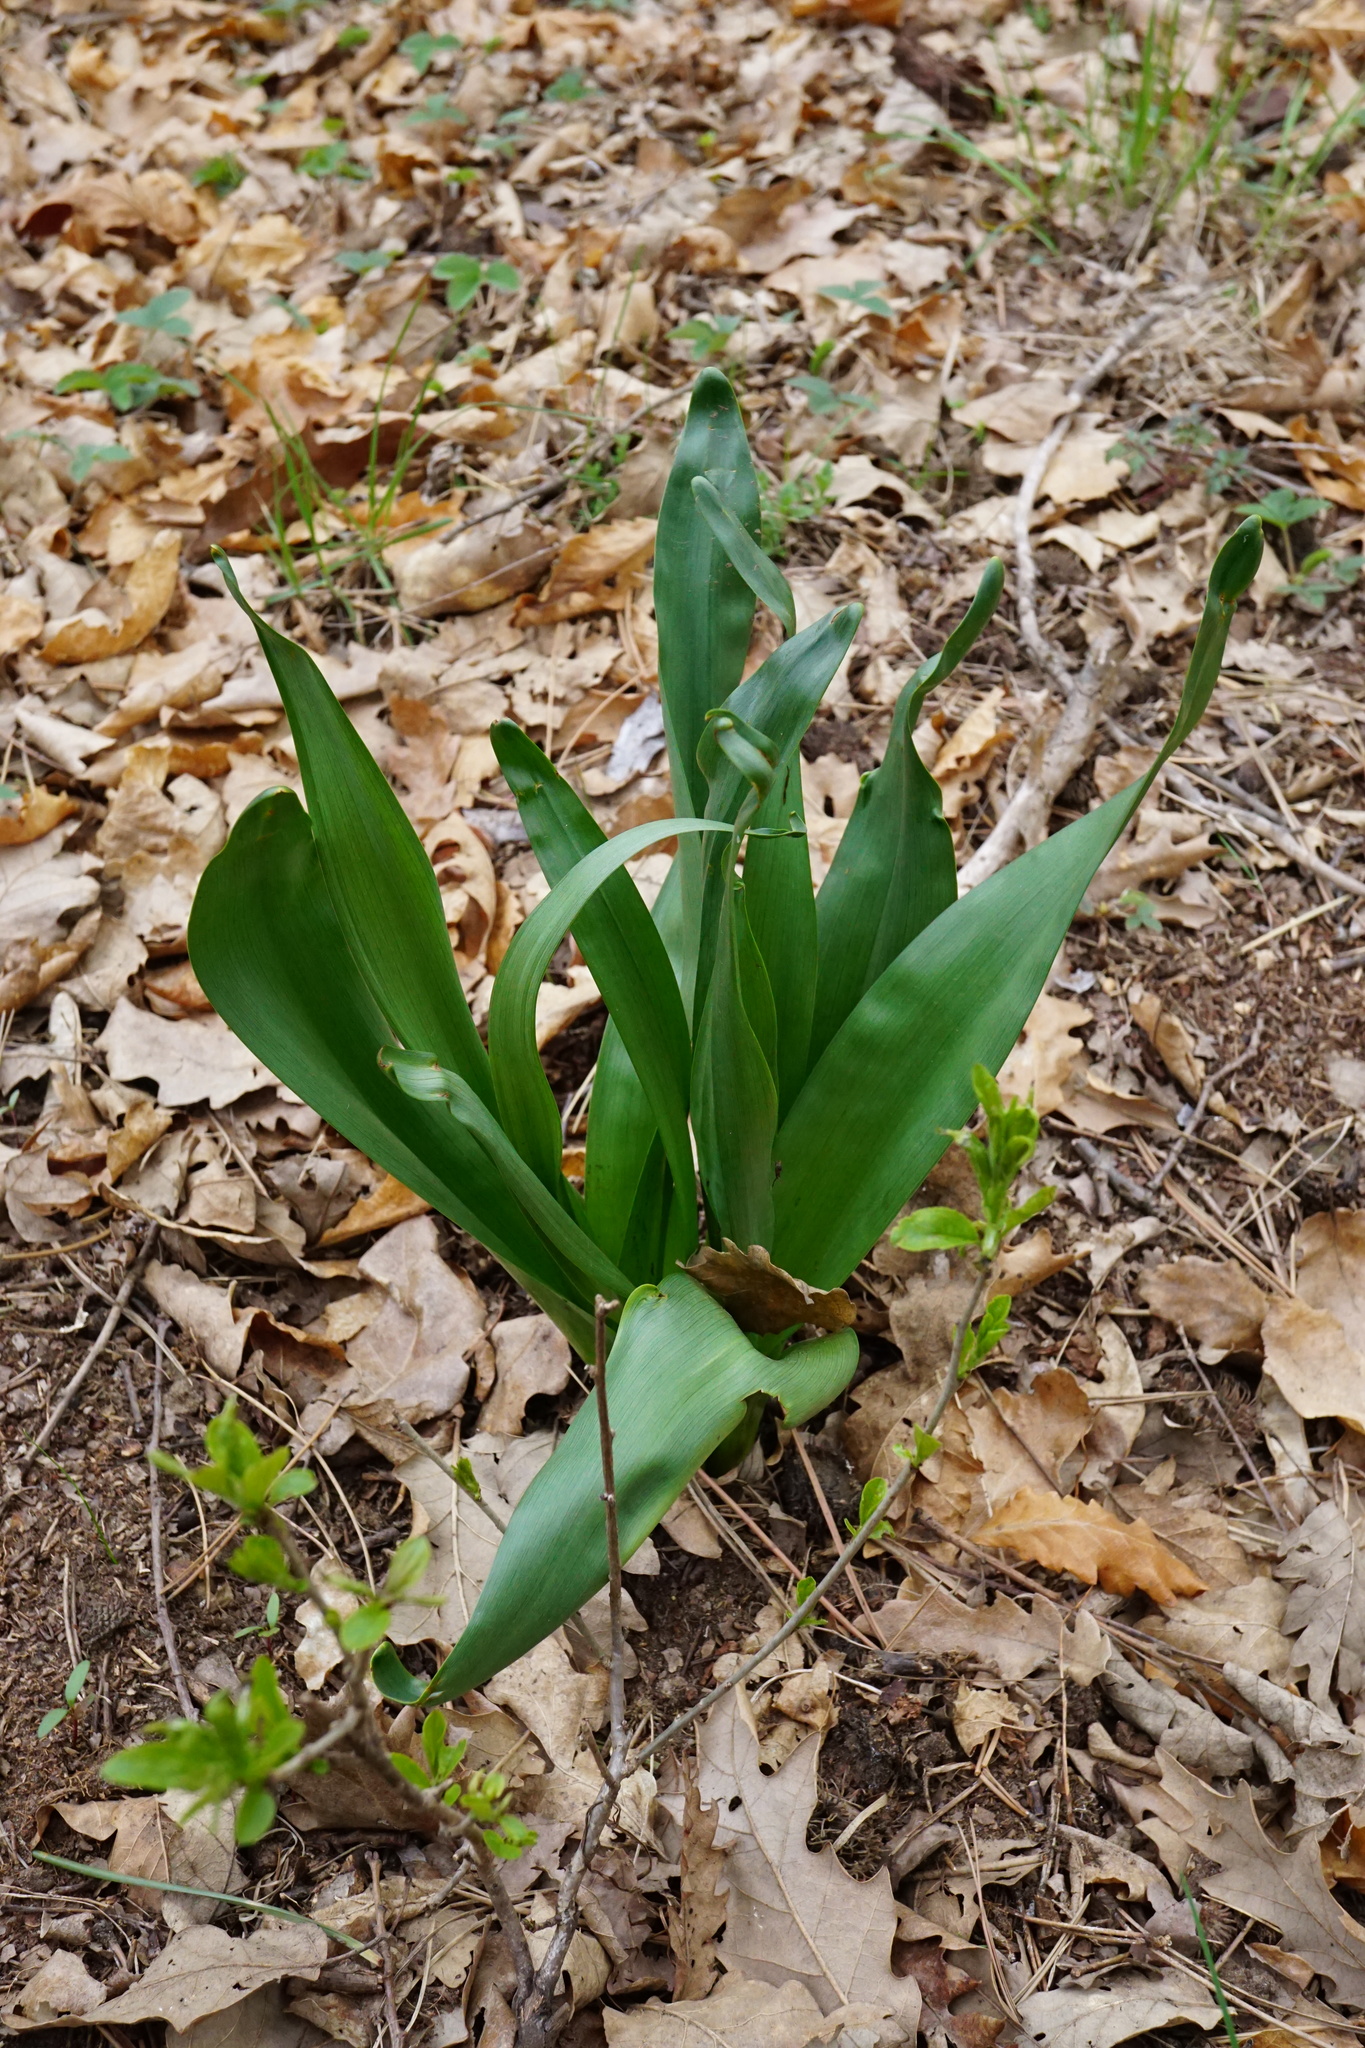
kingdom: Plantae
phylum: Tracheophyta
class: Liliopsida
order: Liliales
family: Colchicaceae
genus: Colchicum
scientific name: Colchicum autumnale
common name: Autumn crocus
